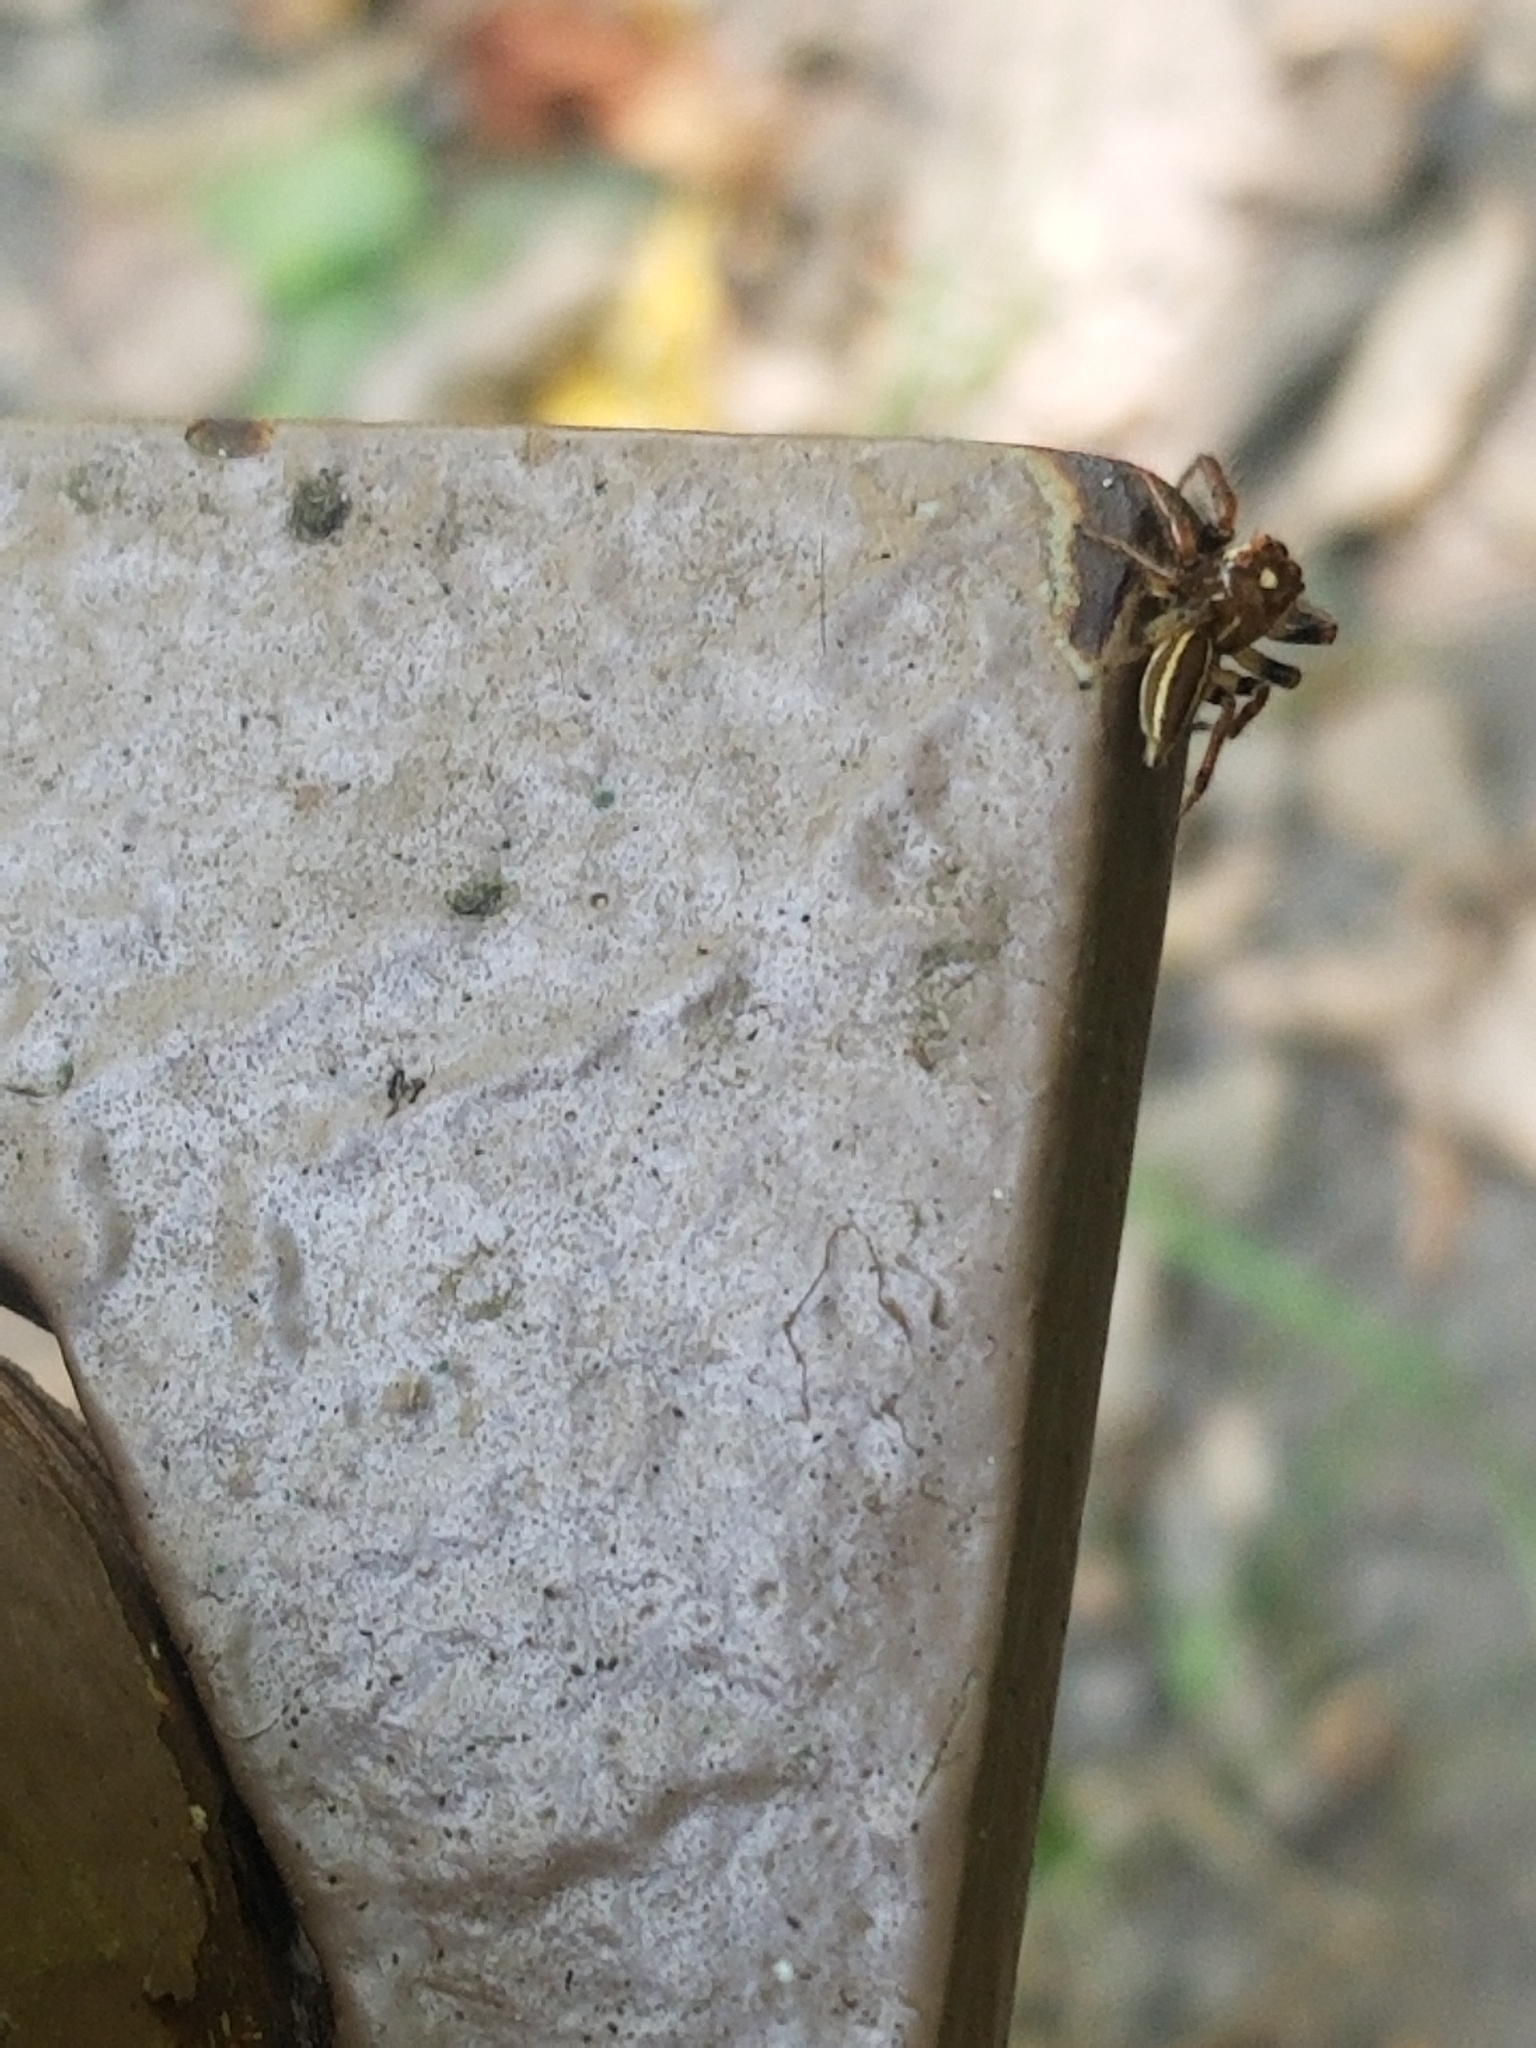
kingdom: Animalia
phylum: Arthropoda
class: Arachnida
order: Araneae
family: Salticidae
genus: Colonus
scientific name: Colonus sylvanus
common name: Jumping spiders
